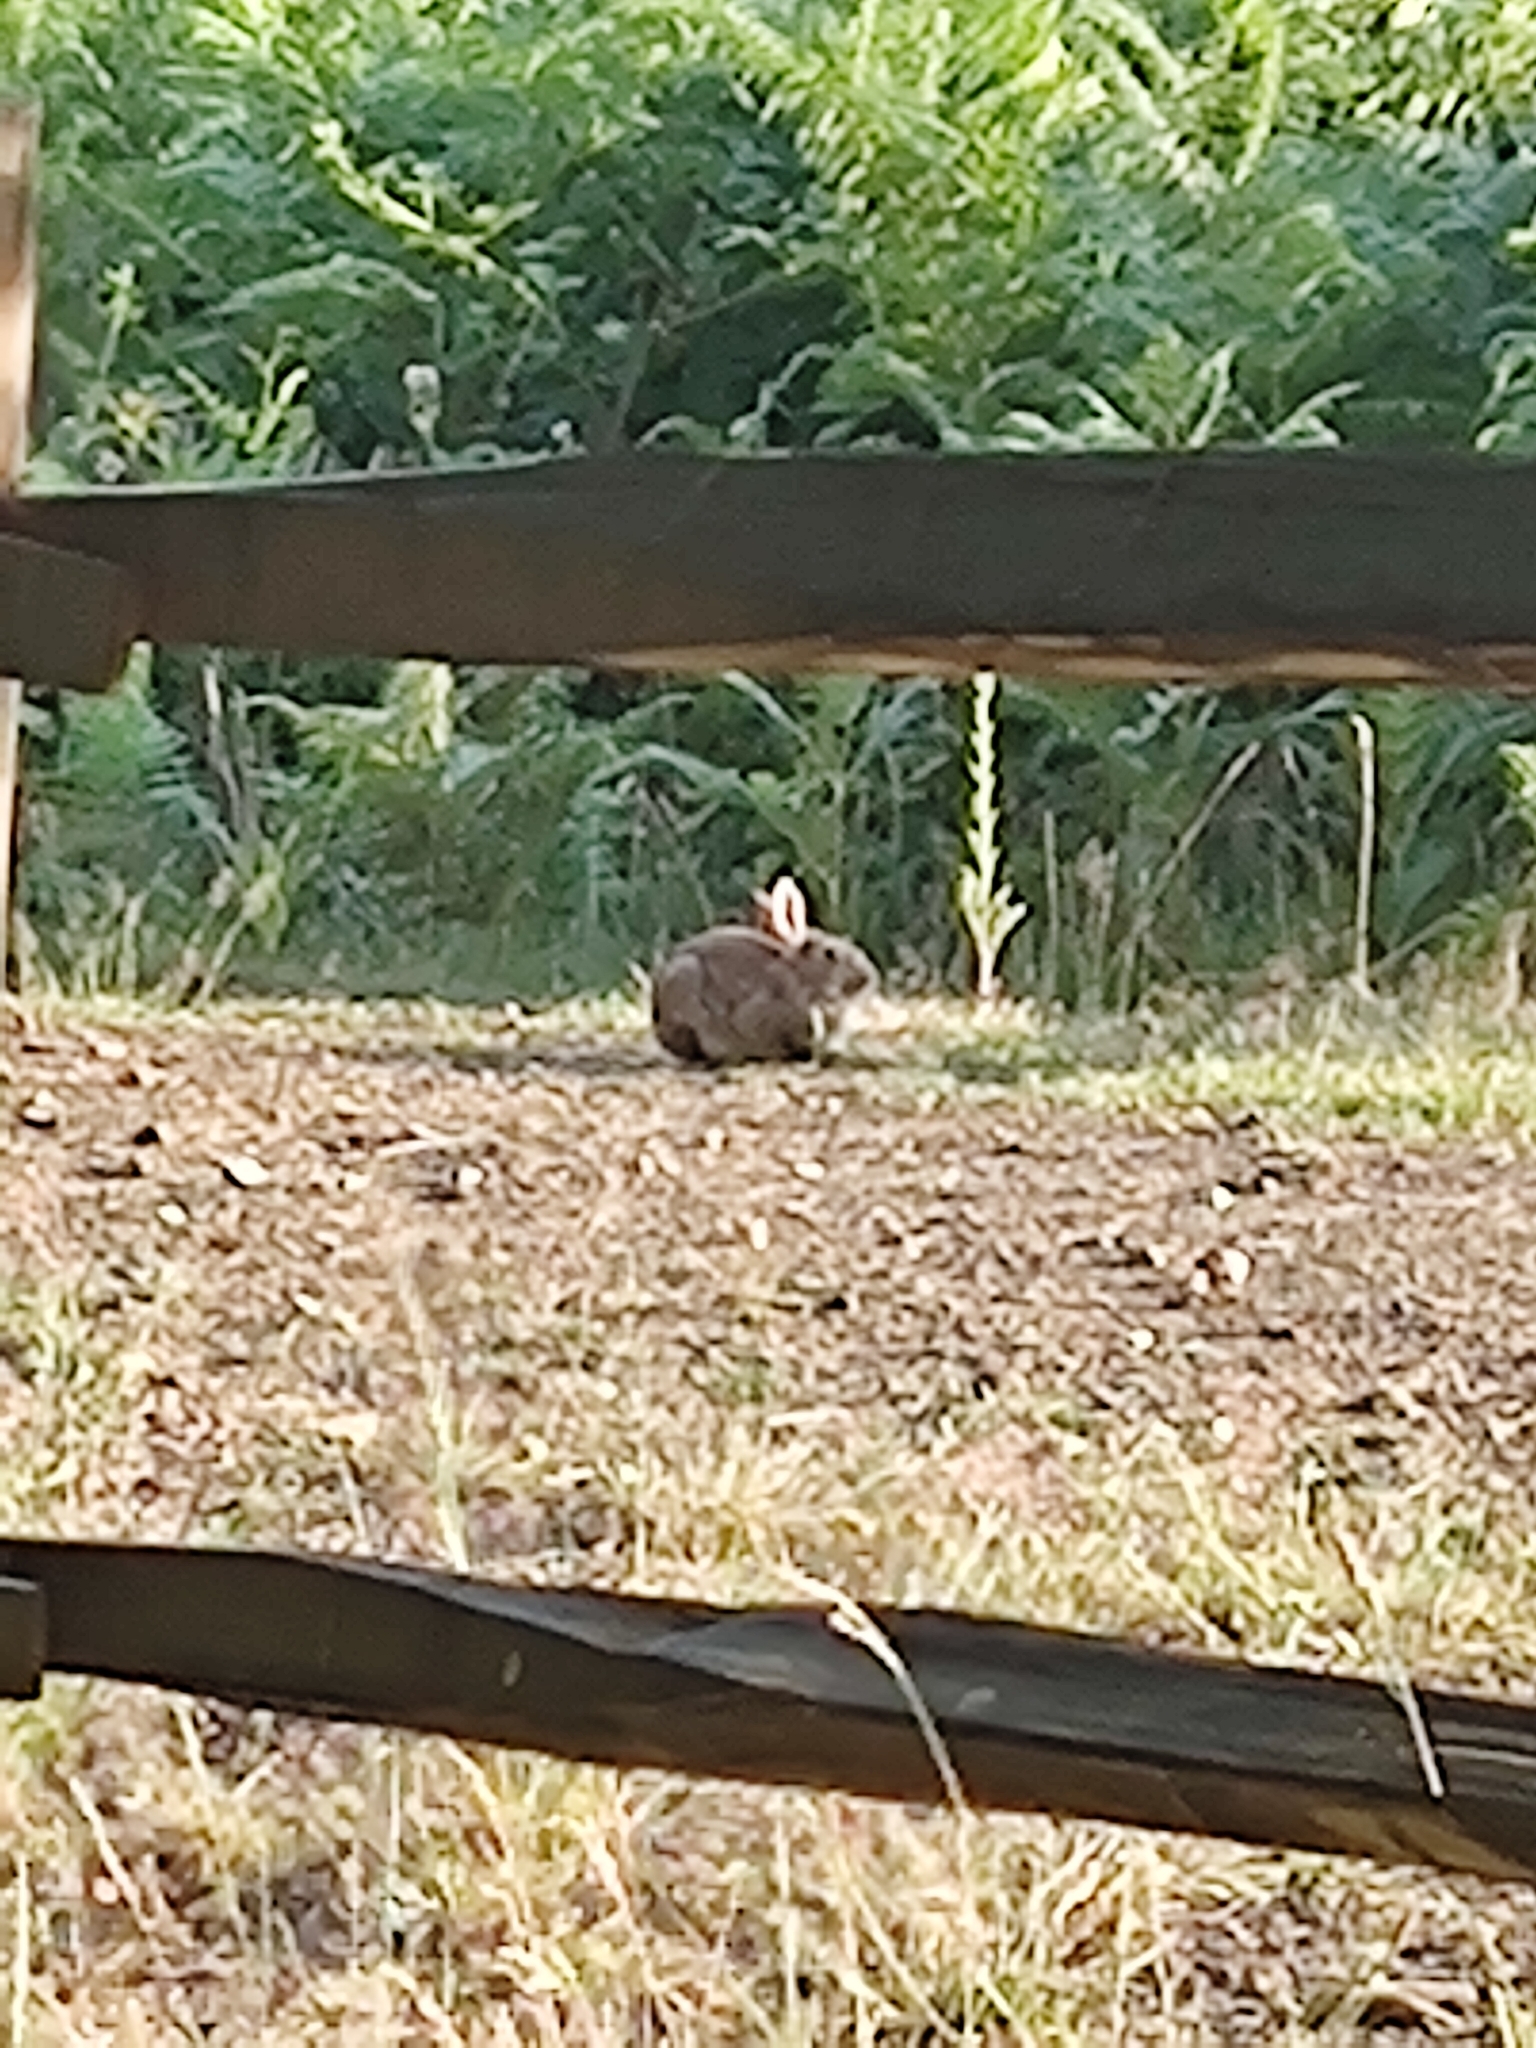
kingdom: Animalia
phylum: Chordata
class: Mammalia
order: Lagomorpha
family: Leporidae
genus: Oryctolagus
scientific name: Oryctolagus cuniculus
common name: European rabbit
